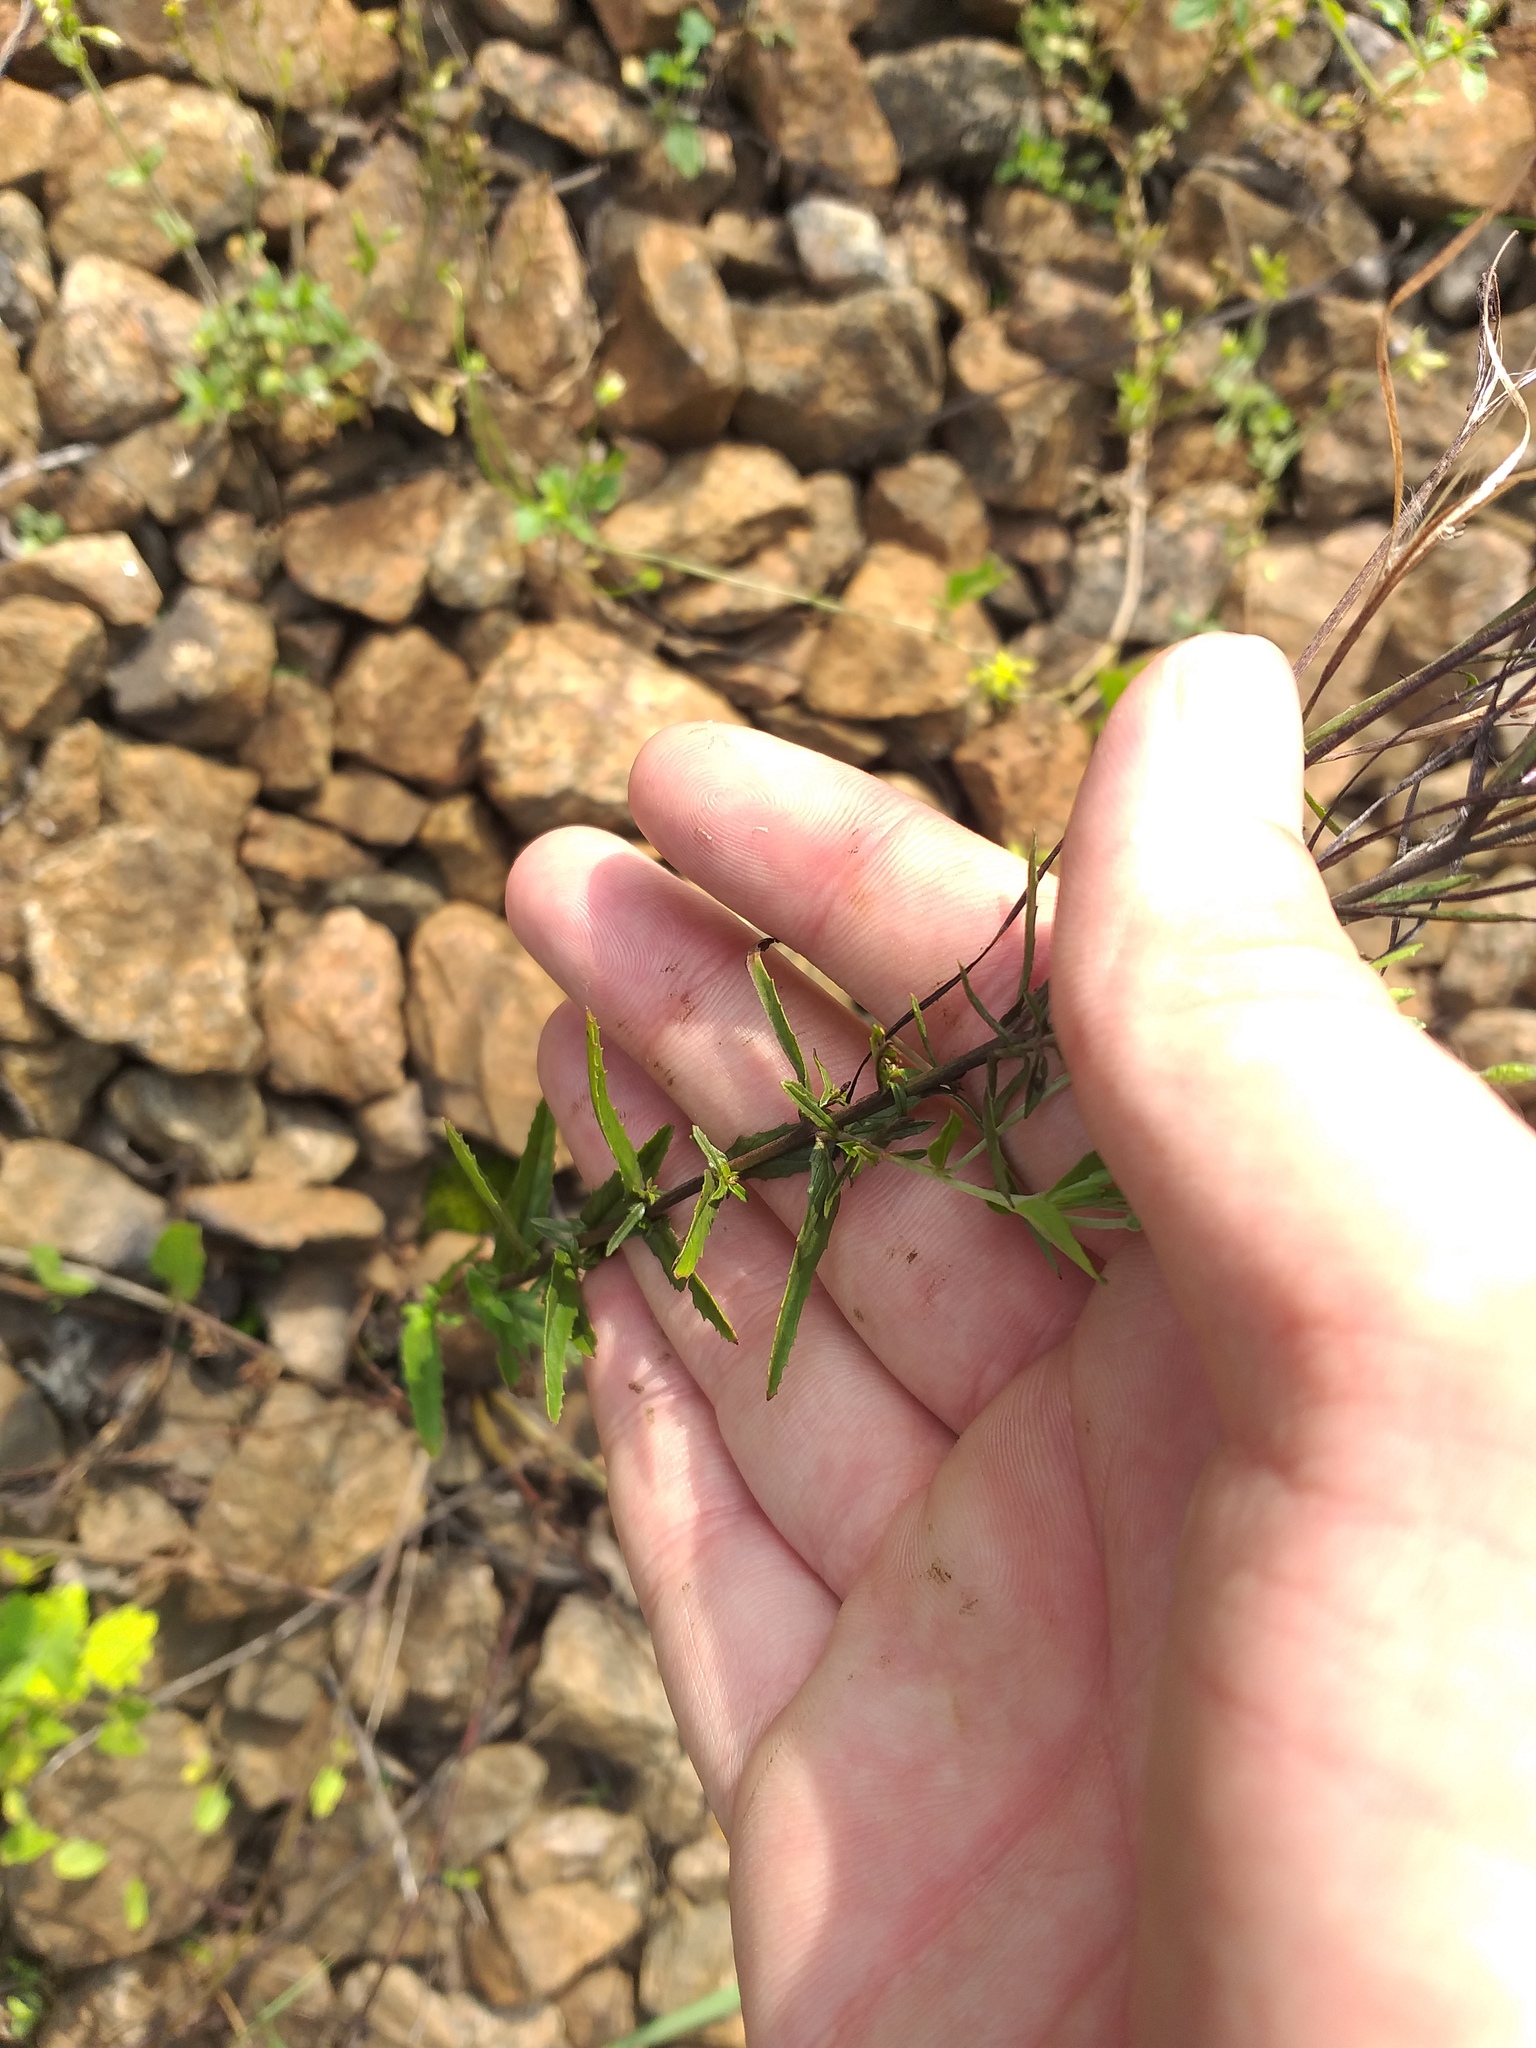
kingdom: Plantae
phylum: Tracheophyta
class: Magnoliopsida
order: Myrtales
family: Onagraceae
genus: Epilobium
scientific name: Epilobium tetragonum
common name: Square-stemmed willowherb
